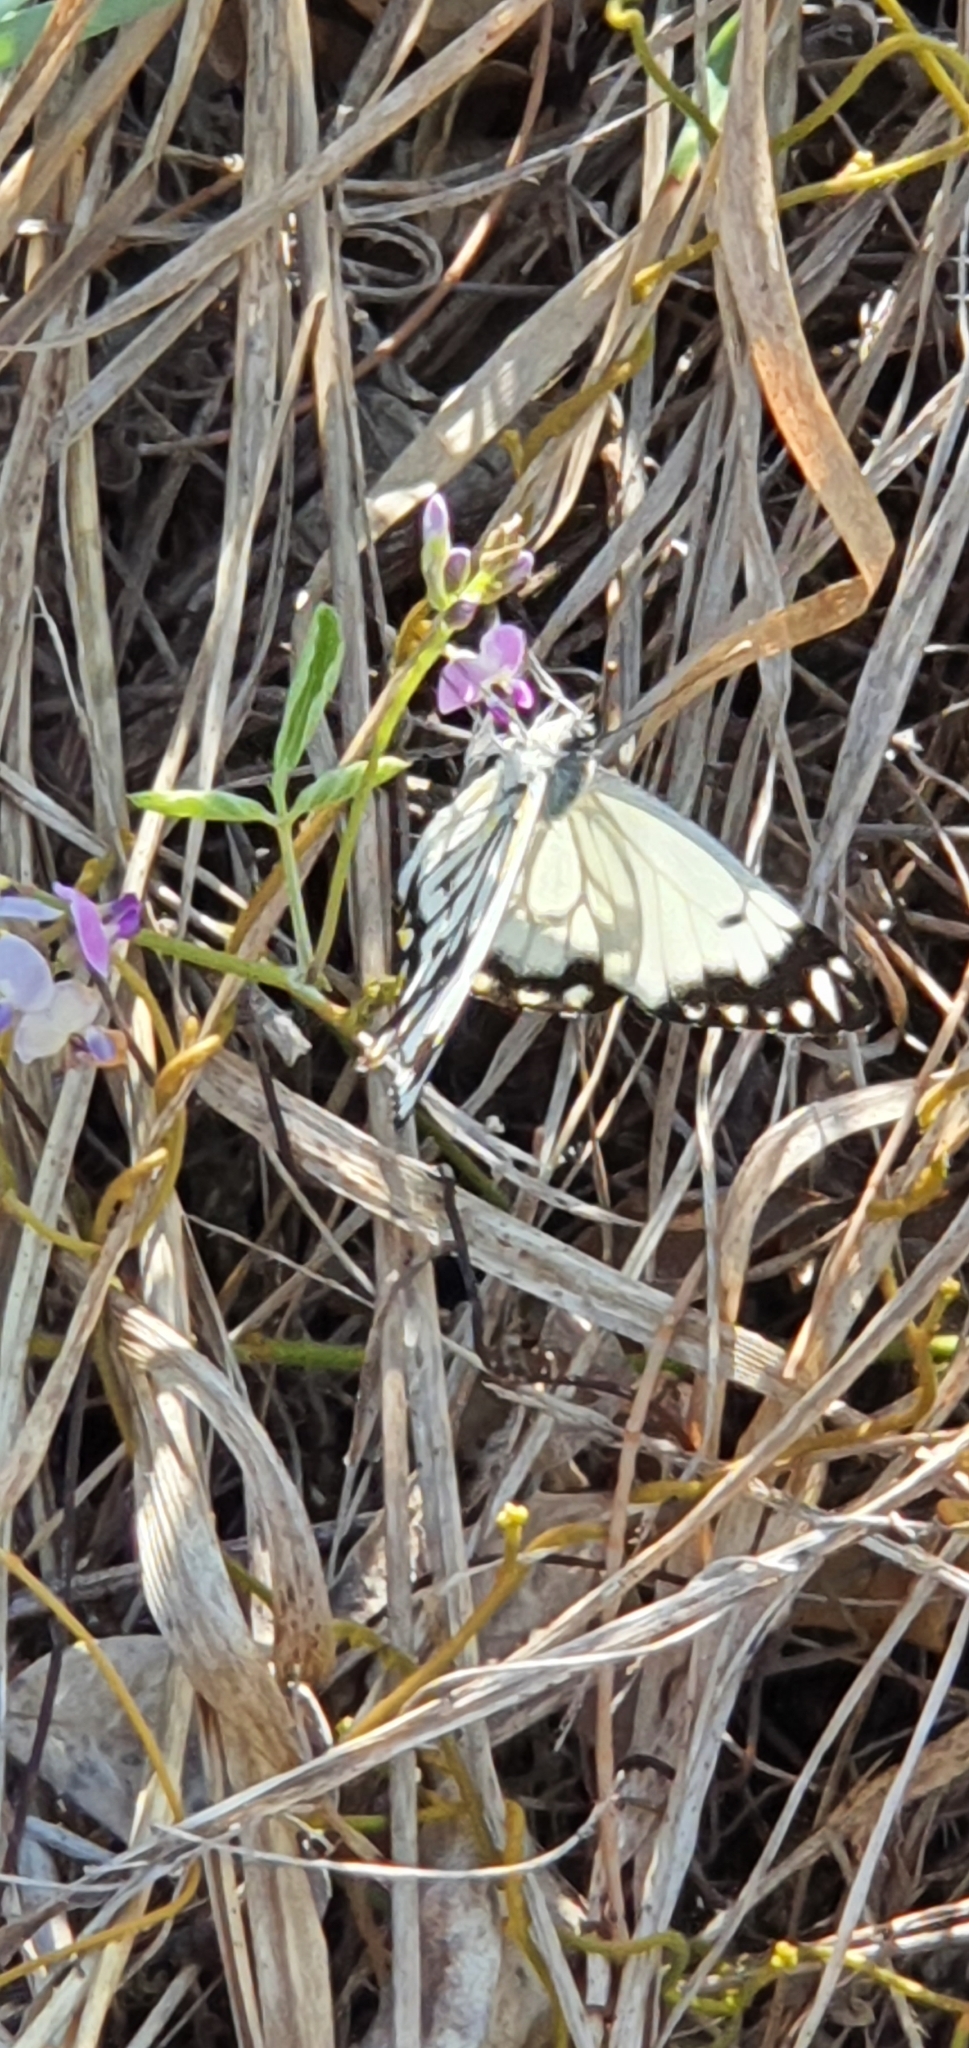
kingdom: Animalia
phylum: Arthropoda
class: Insecta
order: Lepidoptera
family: Pieridae
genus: Belenois
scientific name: Belenois java
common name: Caper white
